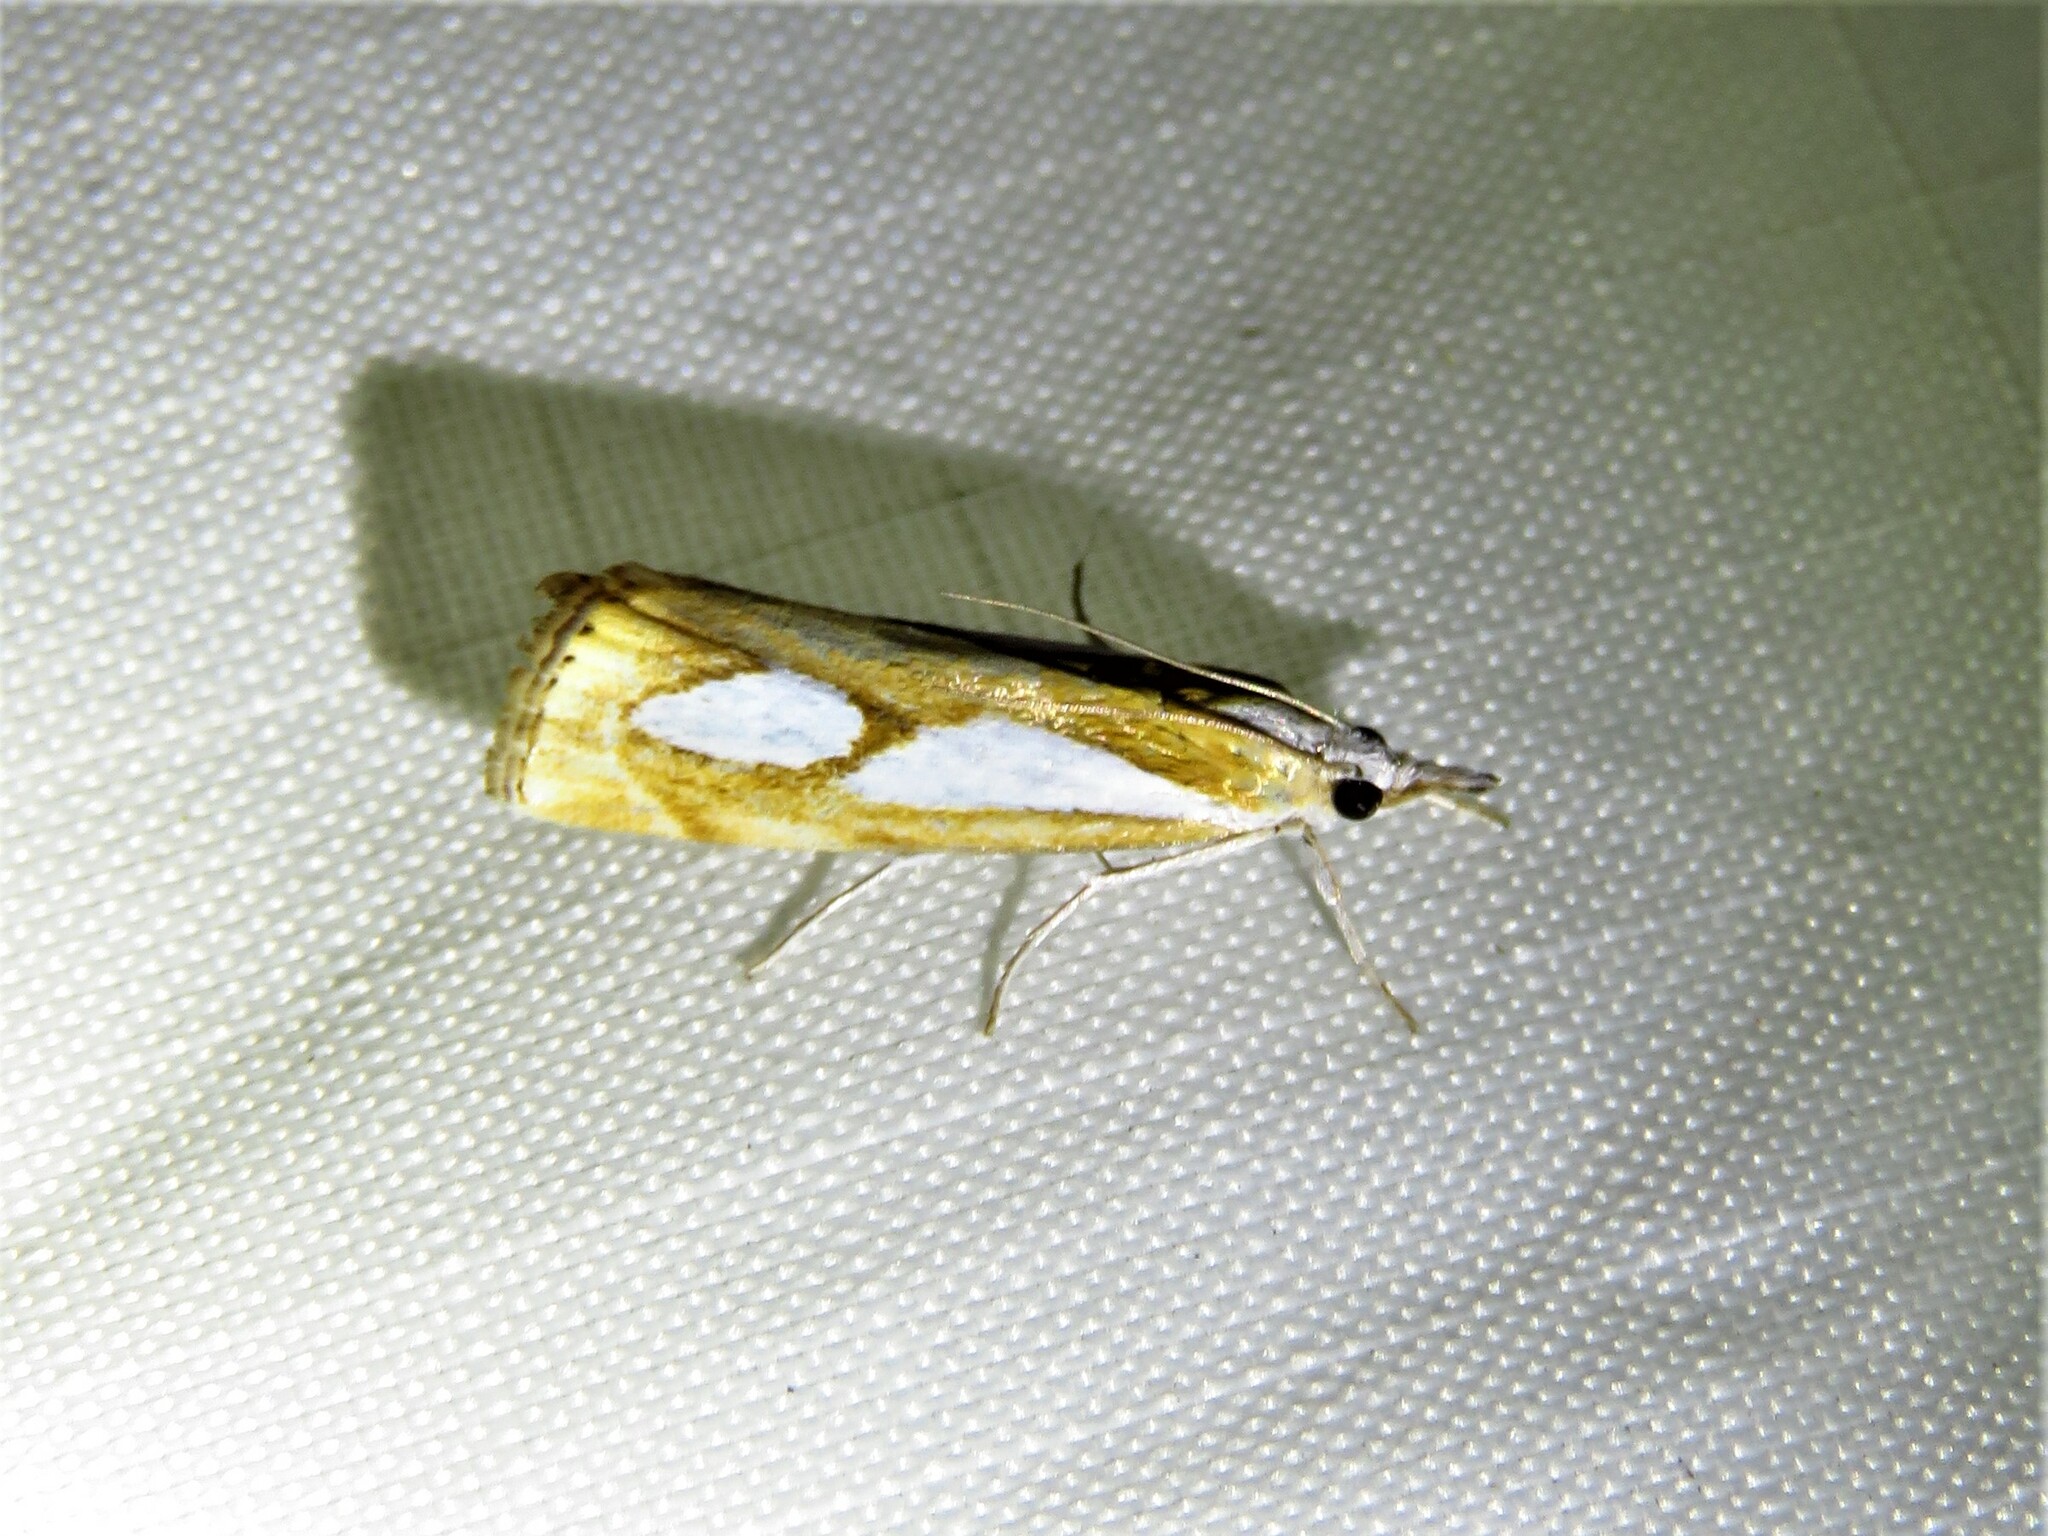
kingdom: Animalia
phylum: Arthropoda
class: Insecta
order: Lepidoptera
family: Crambidae
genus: Catoptria
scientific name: Catoptria pinella
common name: Pearl grass-veneer
